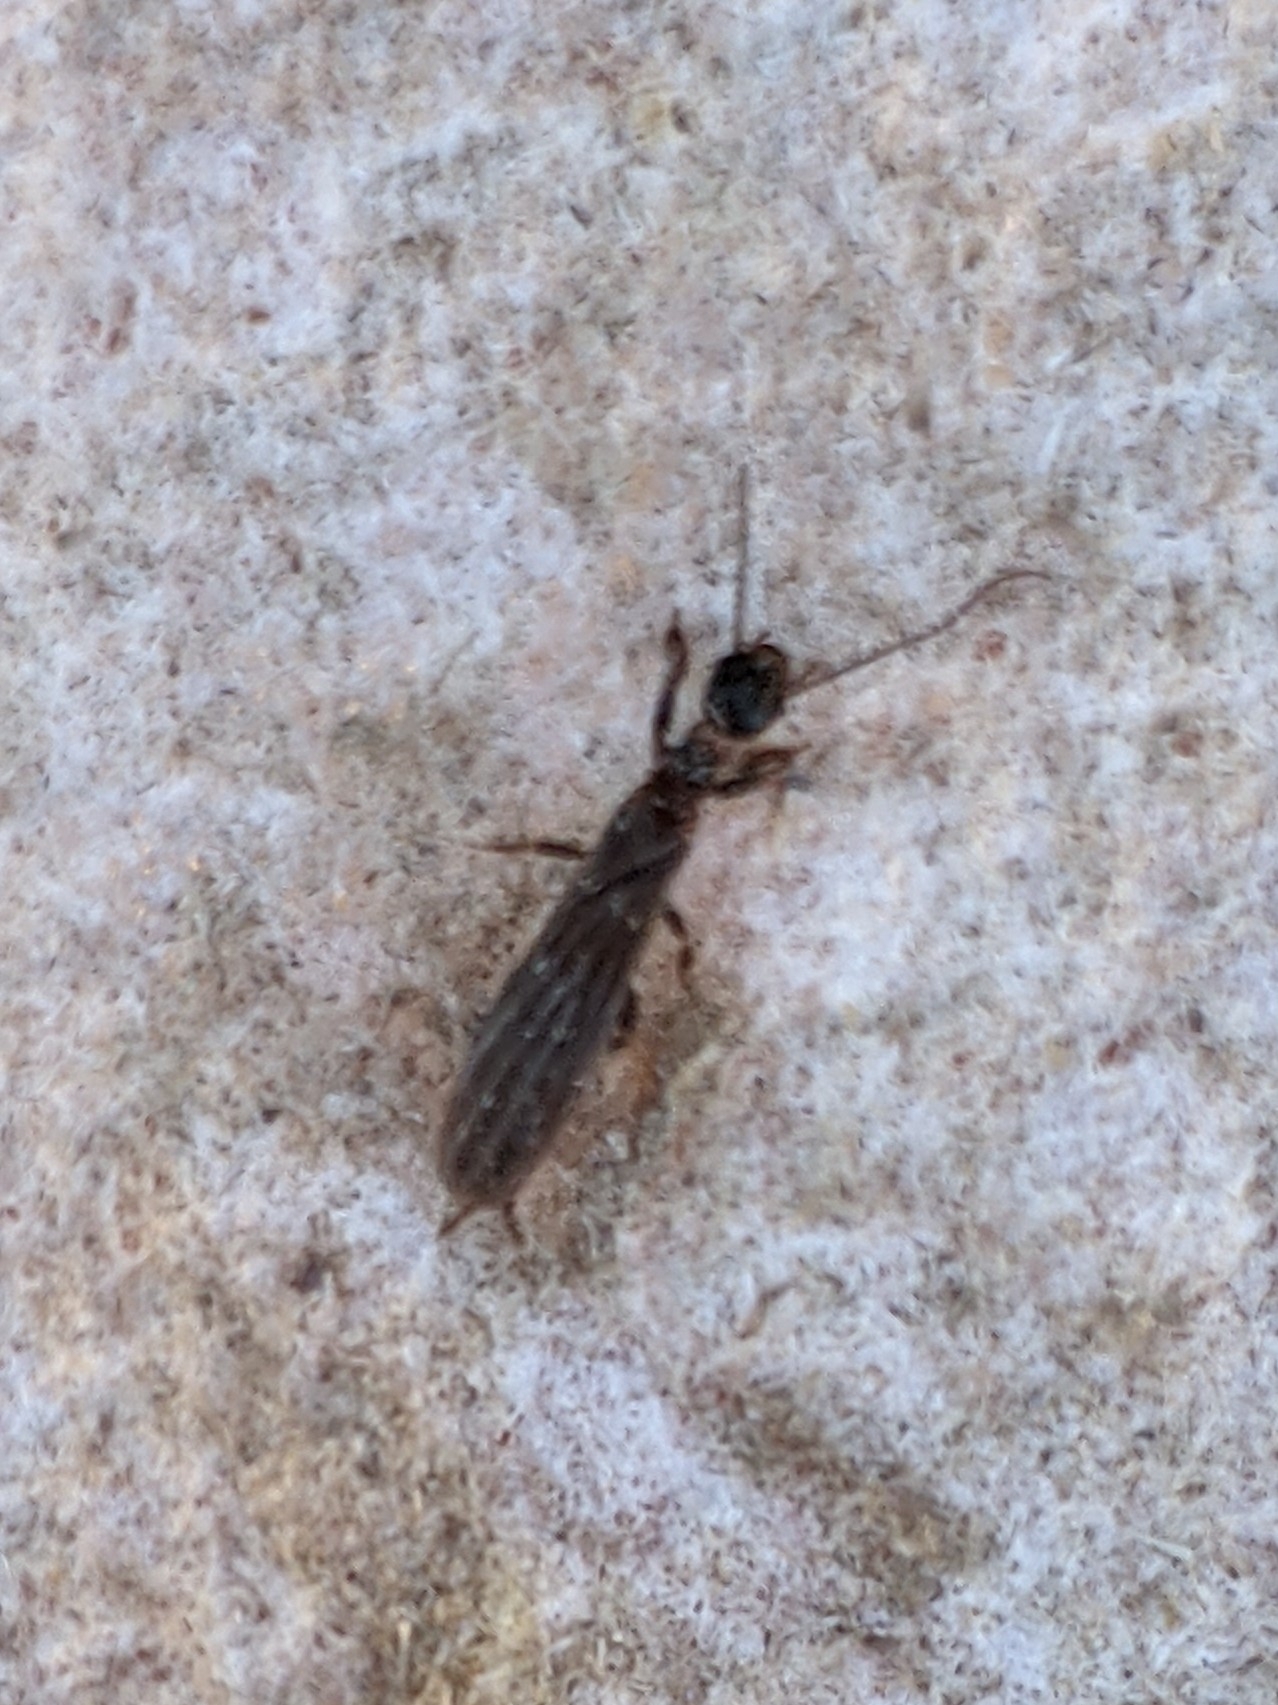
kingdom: Animalia
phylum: Arthropoda
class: Insecta
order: Embioptera
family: Oligotomidae
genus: Oligotoma
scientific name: Oligotoma nigra
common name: Black webspinner
